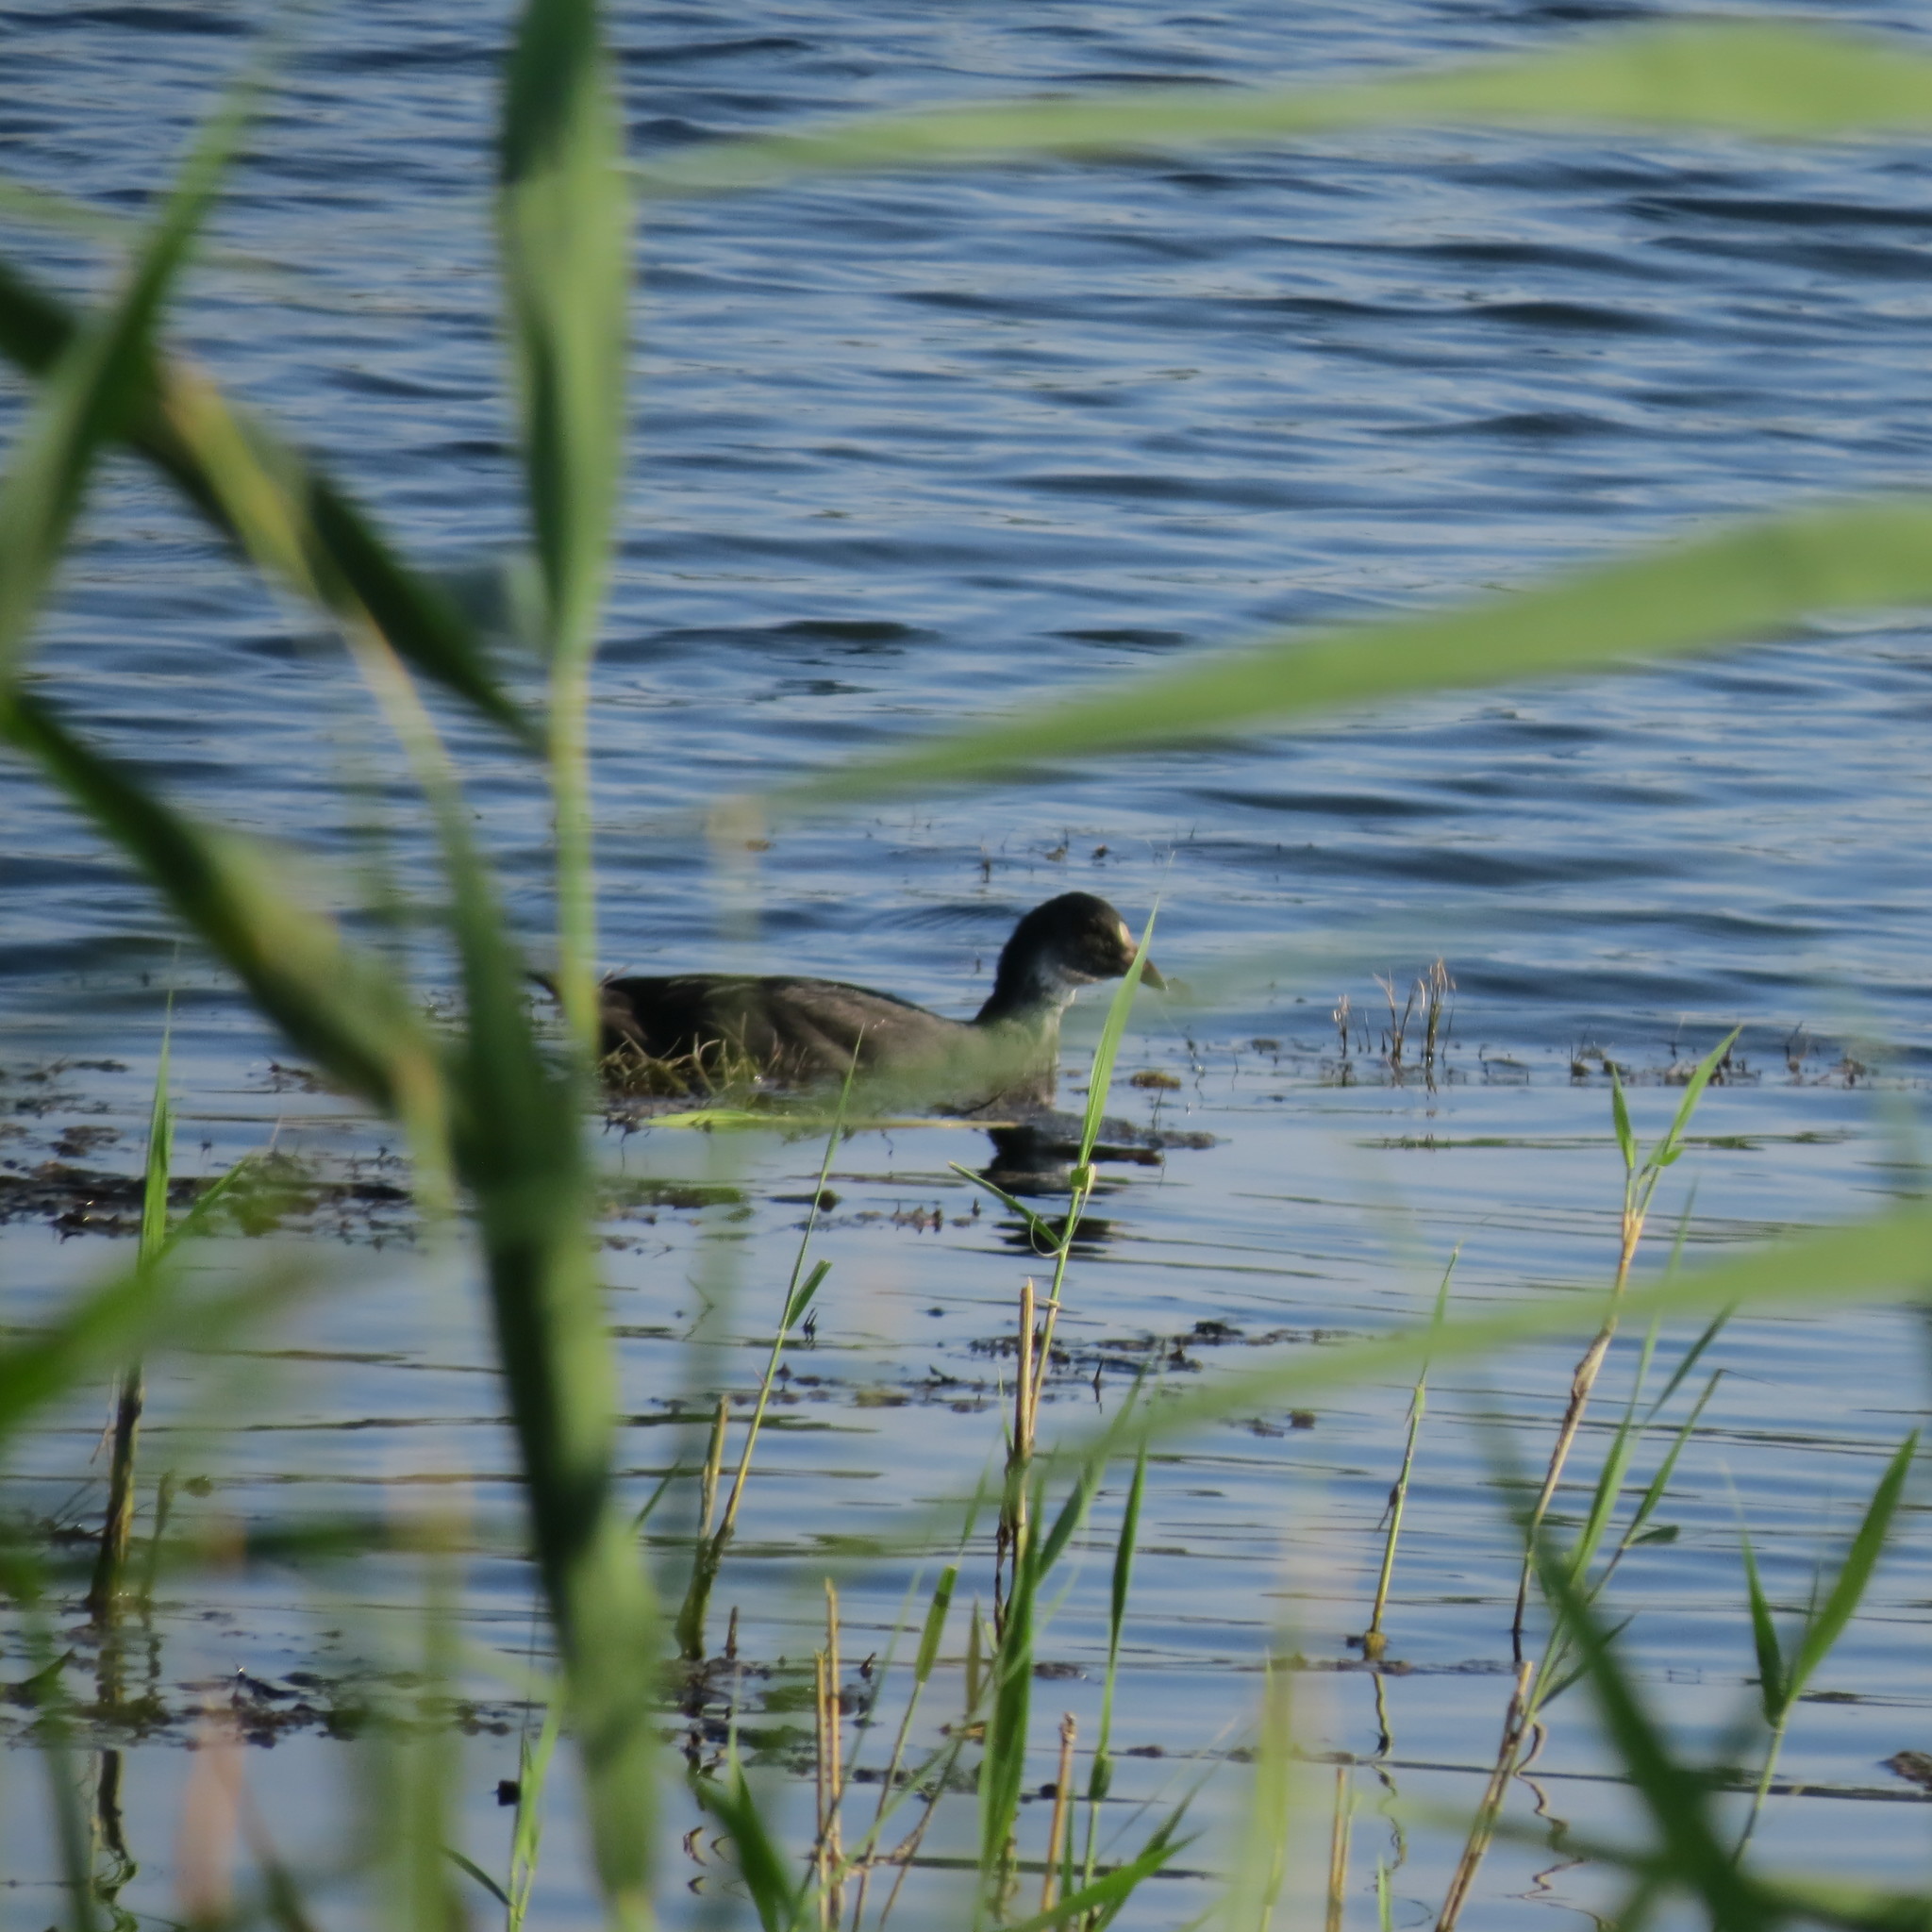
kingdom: Animalia
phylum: Chordata
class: Aves
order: Gruiformes
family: Rallidae
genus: Fulica
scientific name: Fulica atra
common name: Eurasian coot
